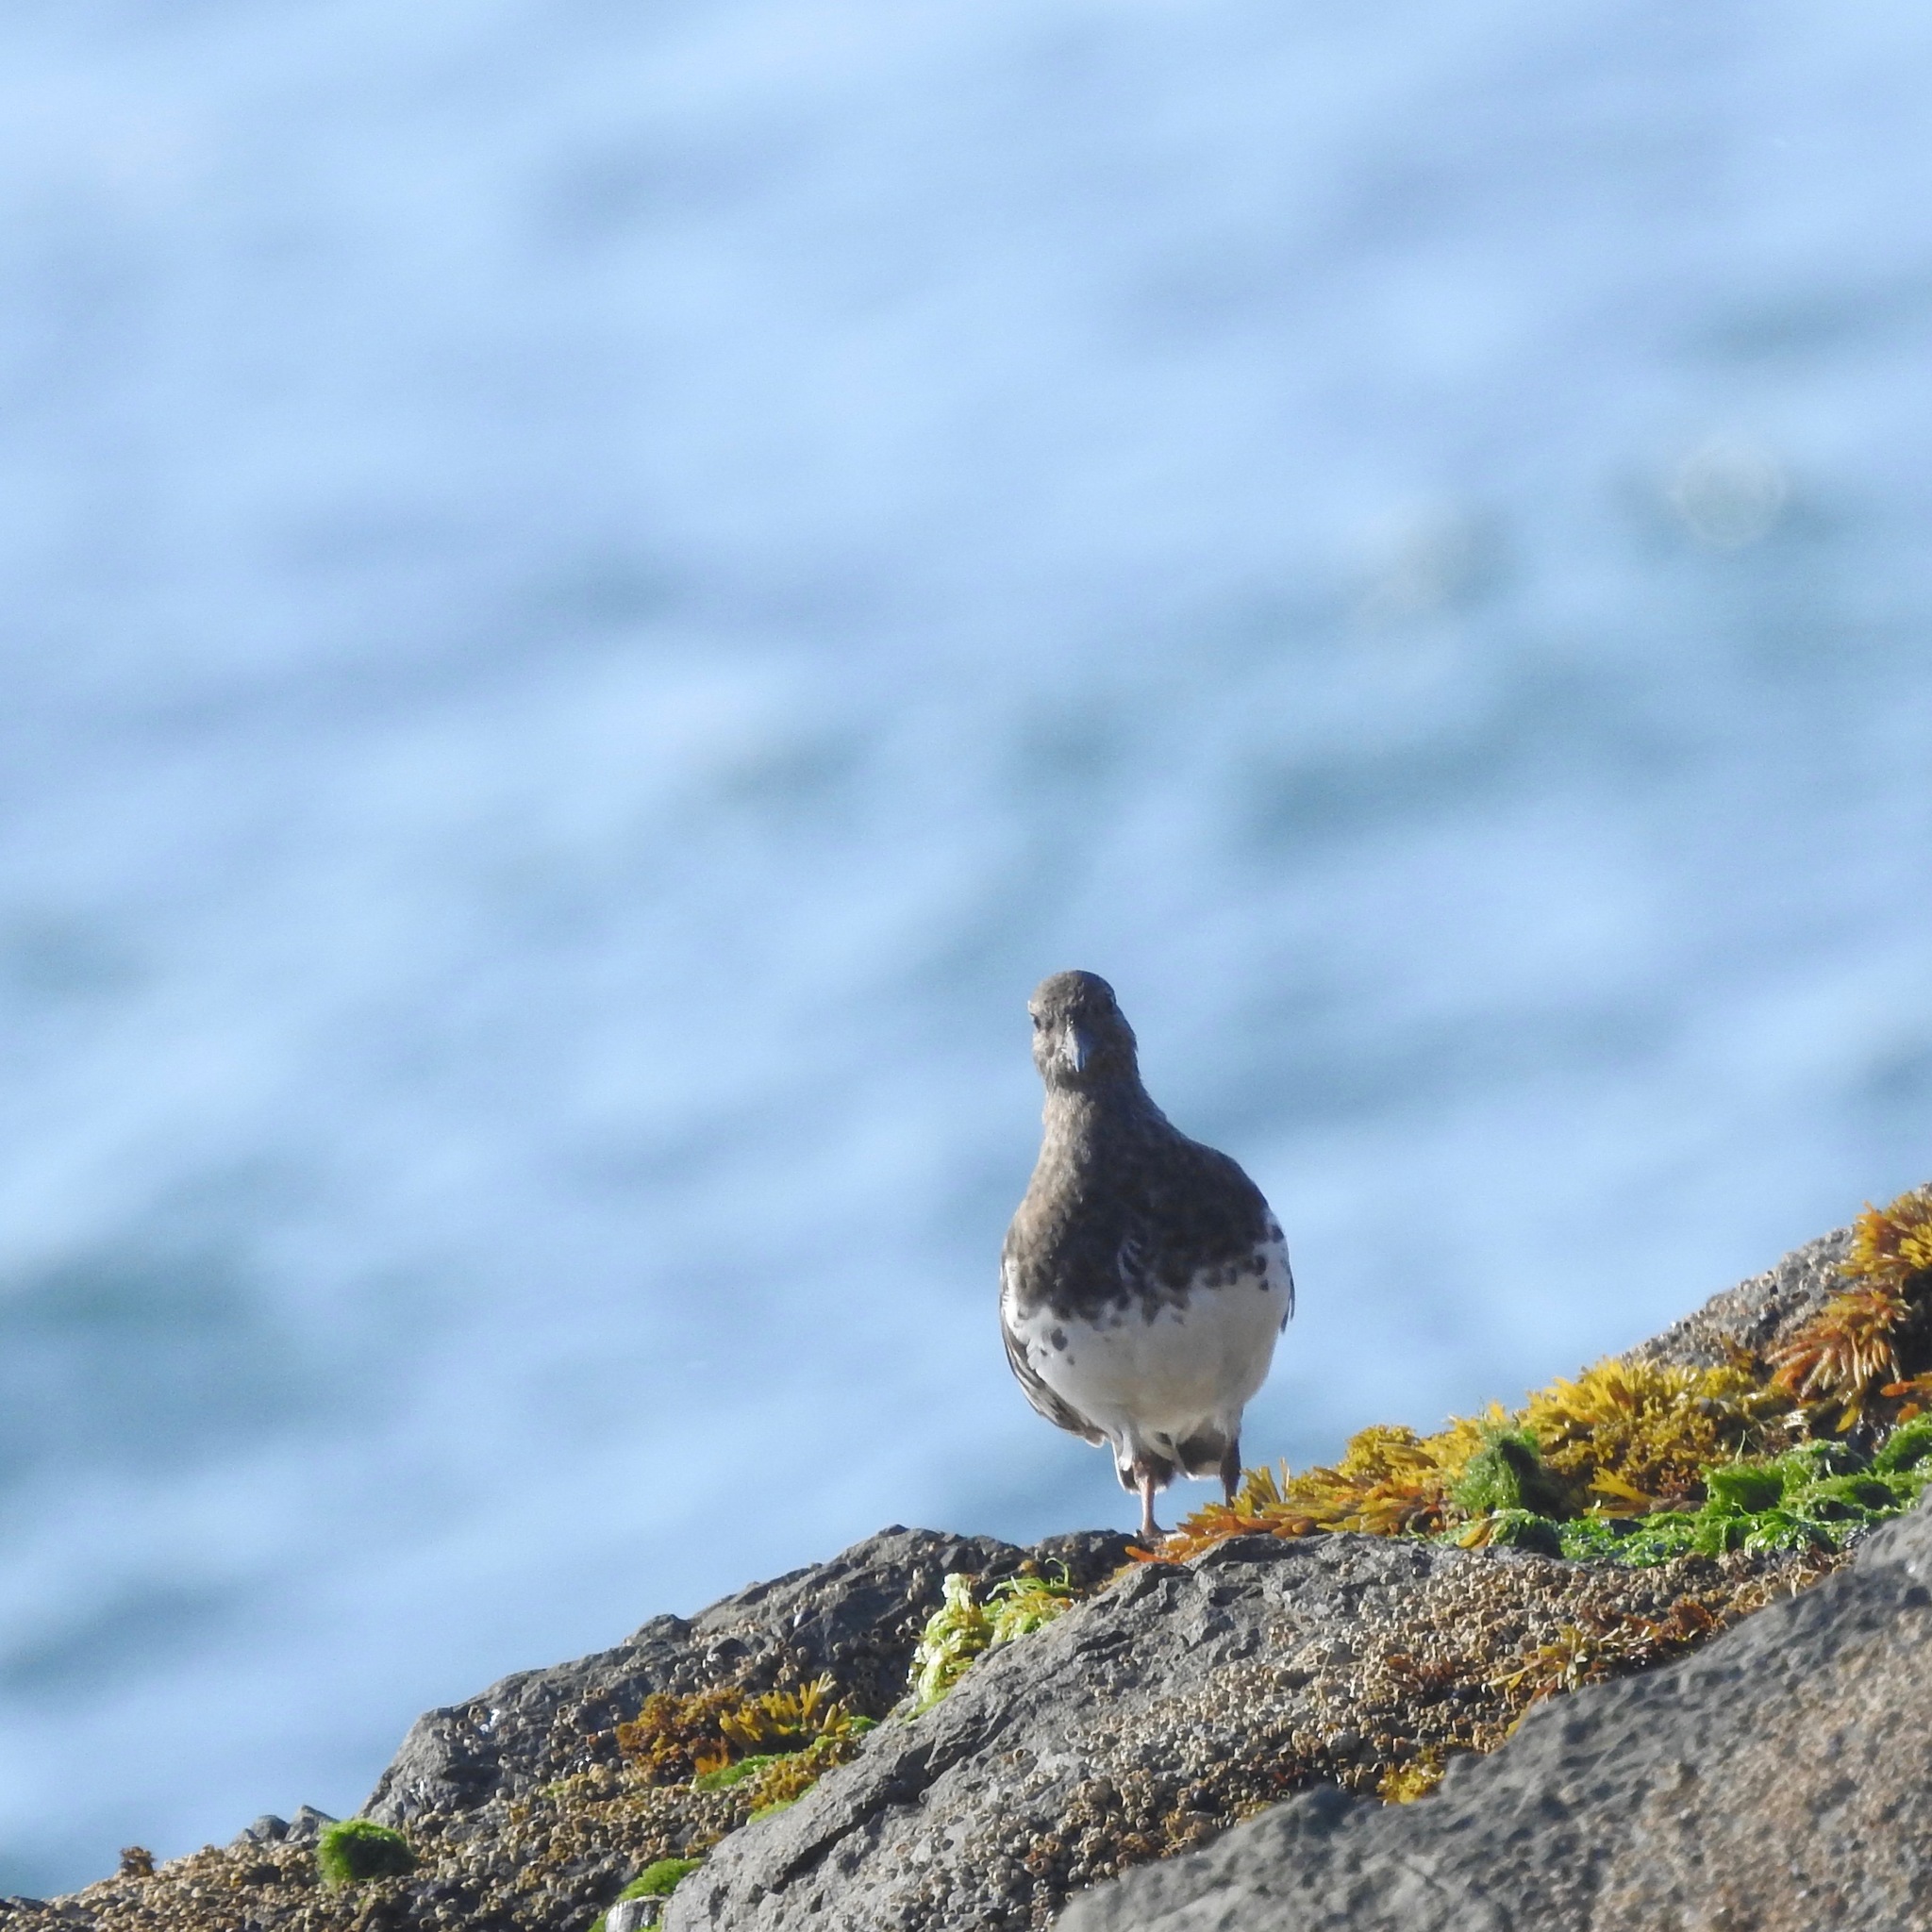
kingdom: Animalia
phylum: Chordata
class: Aves
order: Charadriiformes
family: Scolopacidae
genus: Arenaria
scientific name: Arenaria melanocephala
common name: Black turnstone
